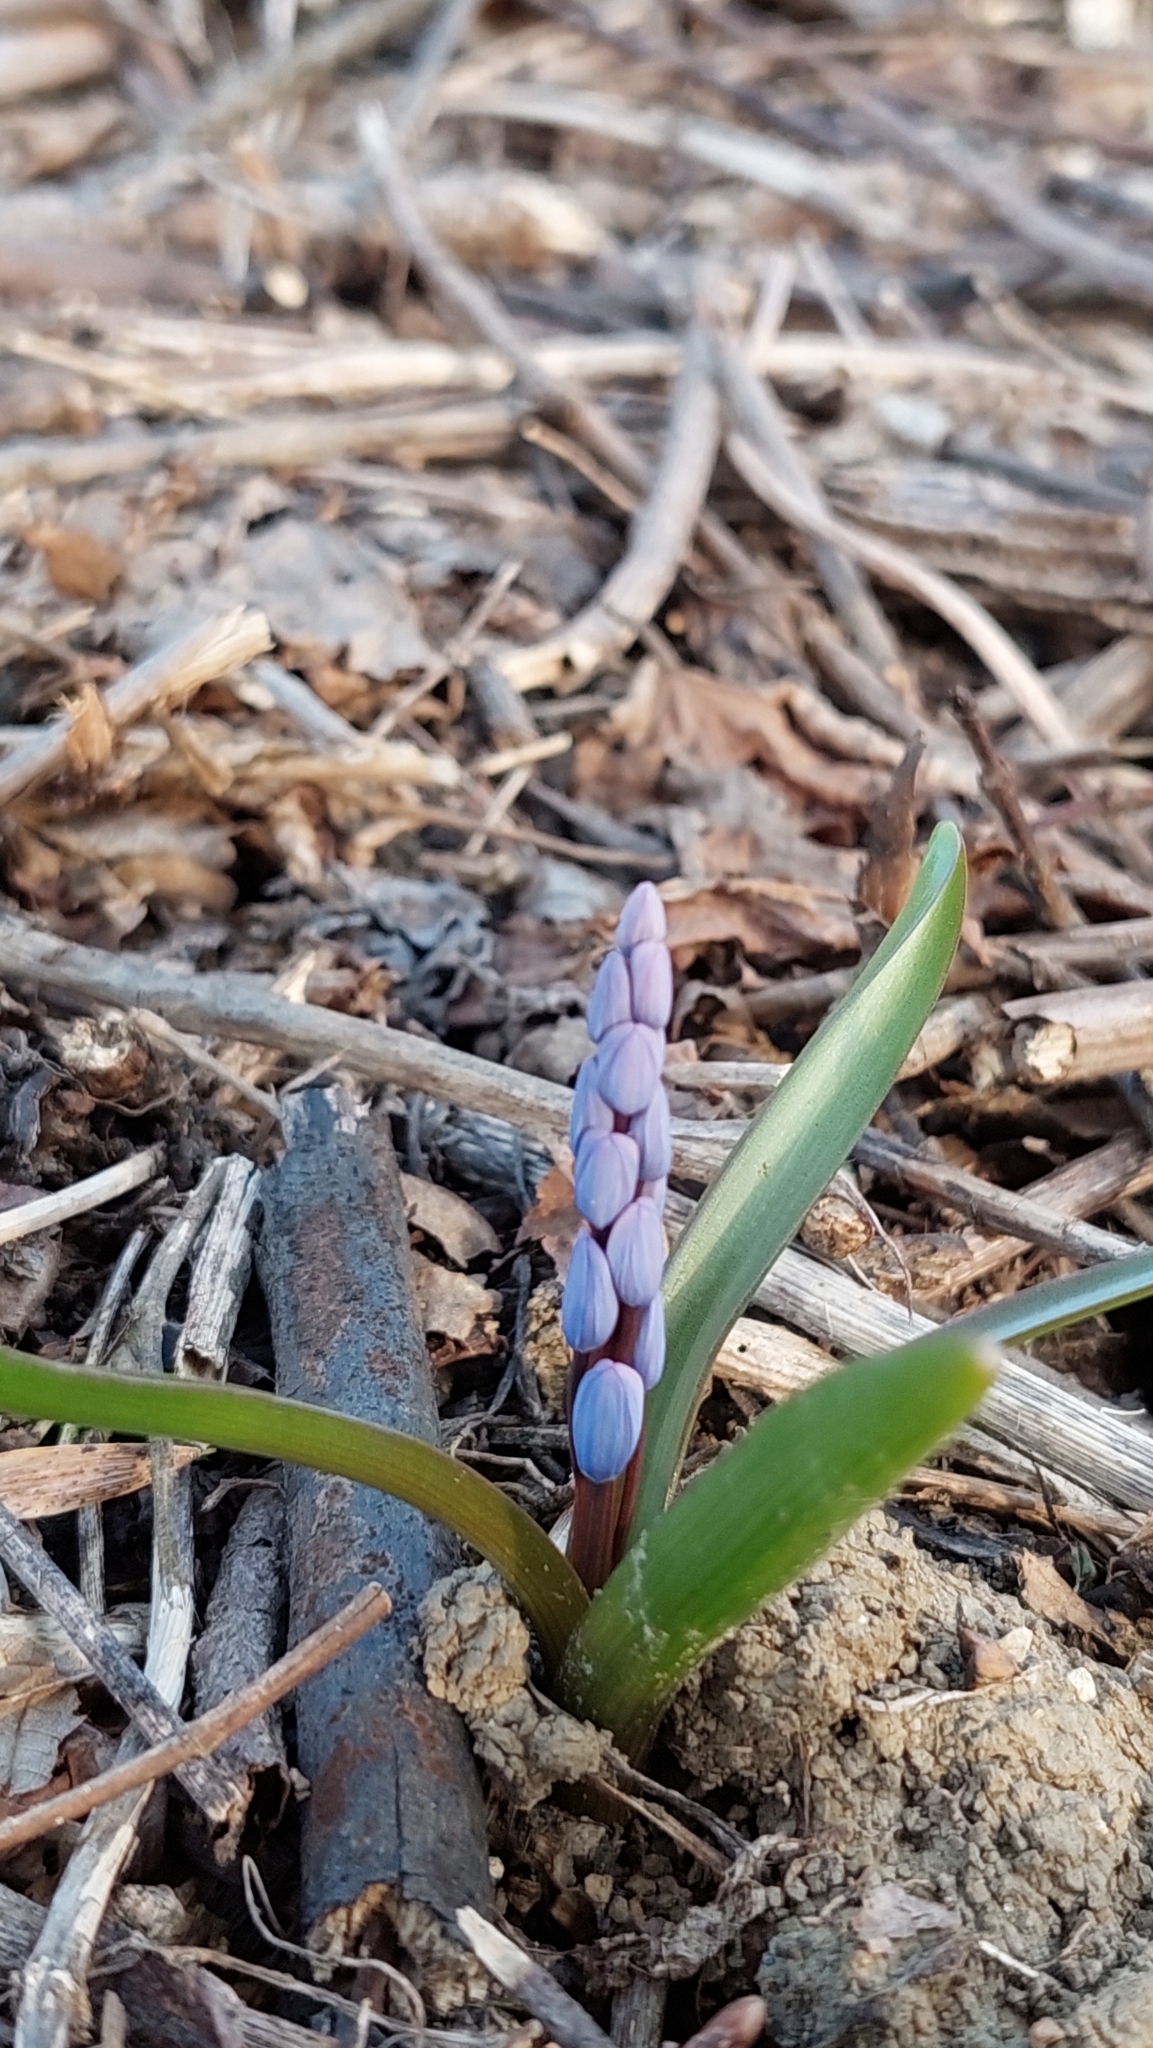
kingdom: Plantae
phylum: Tracheophyta
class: Liliopsida
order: Asparagales
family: Asparagaceae
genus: Scilla
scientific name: Scilla bifolia
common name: Alpine squill
